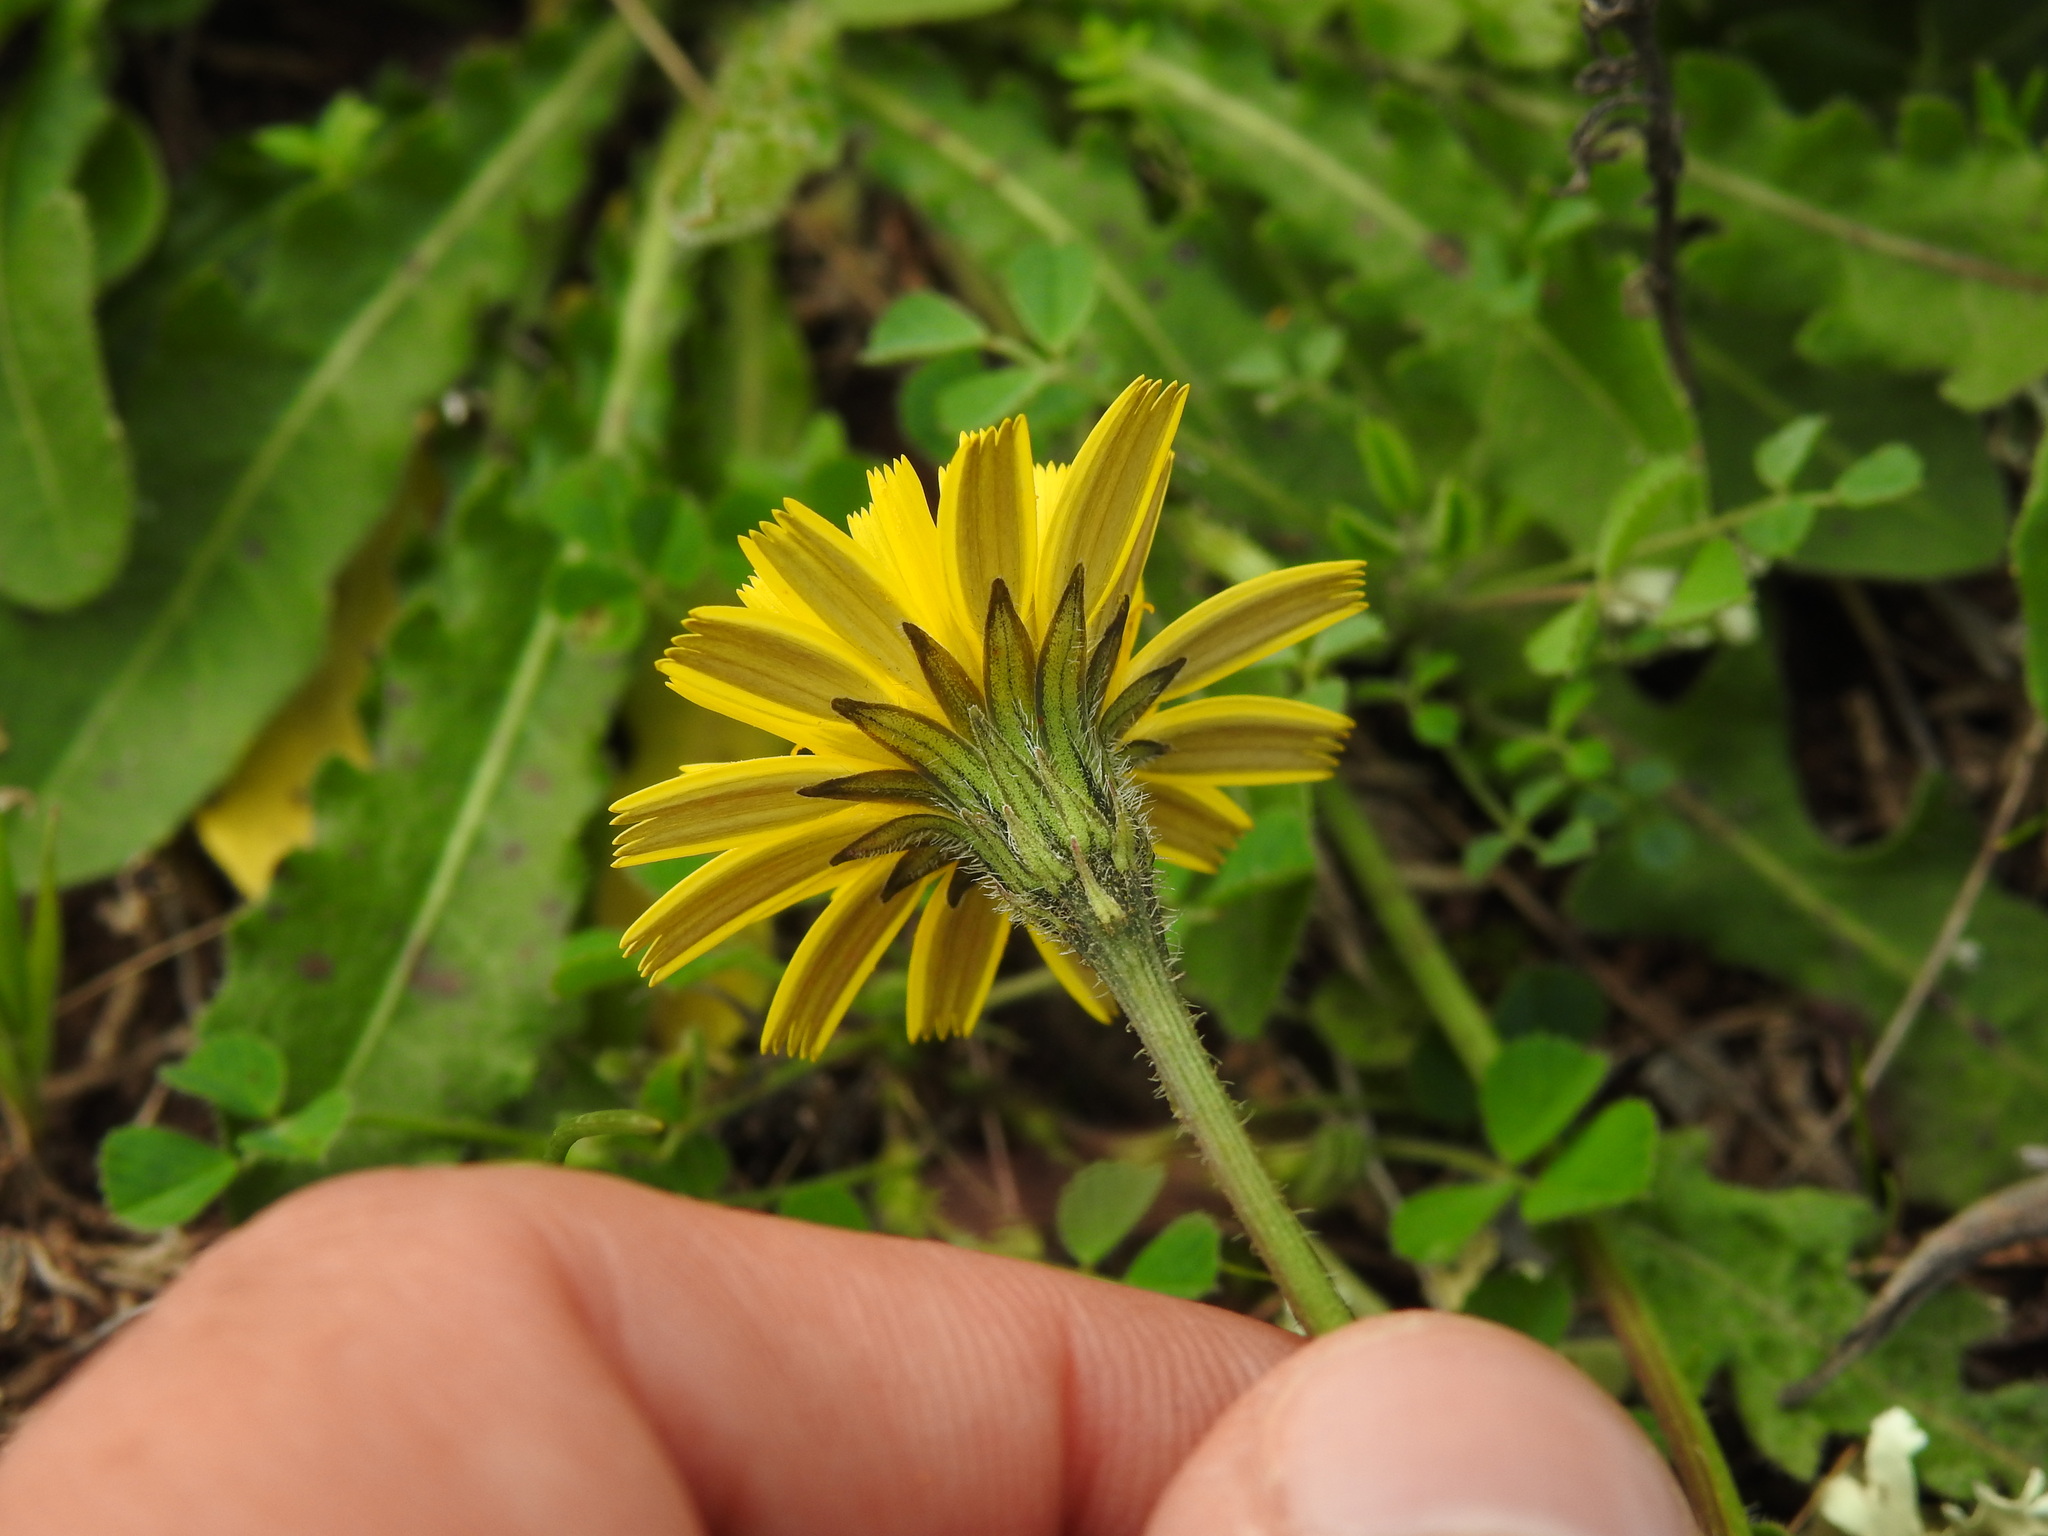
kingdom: Plantae
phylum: Tracheophyta
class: Magnoliopsida
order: Asterales
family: Asteraceae
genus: Leontodon
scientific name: Leontodon tuberosus
